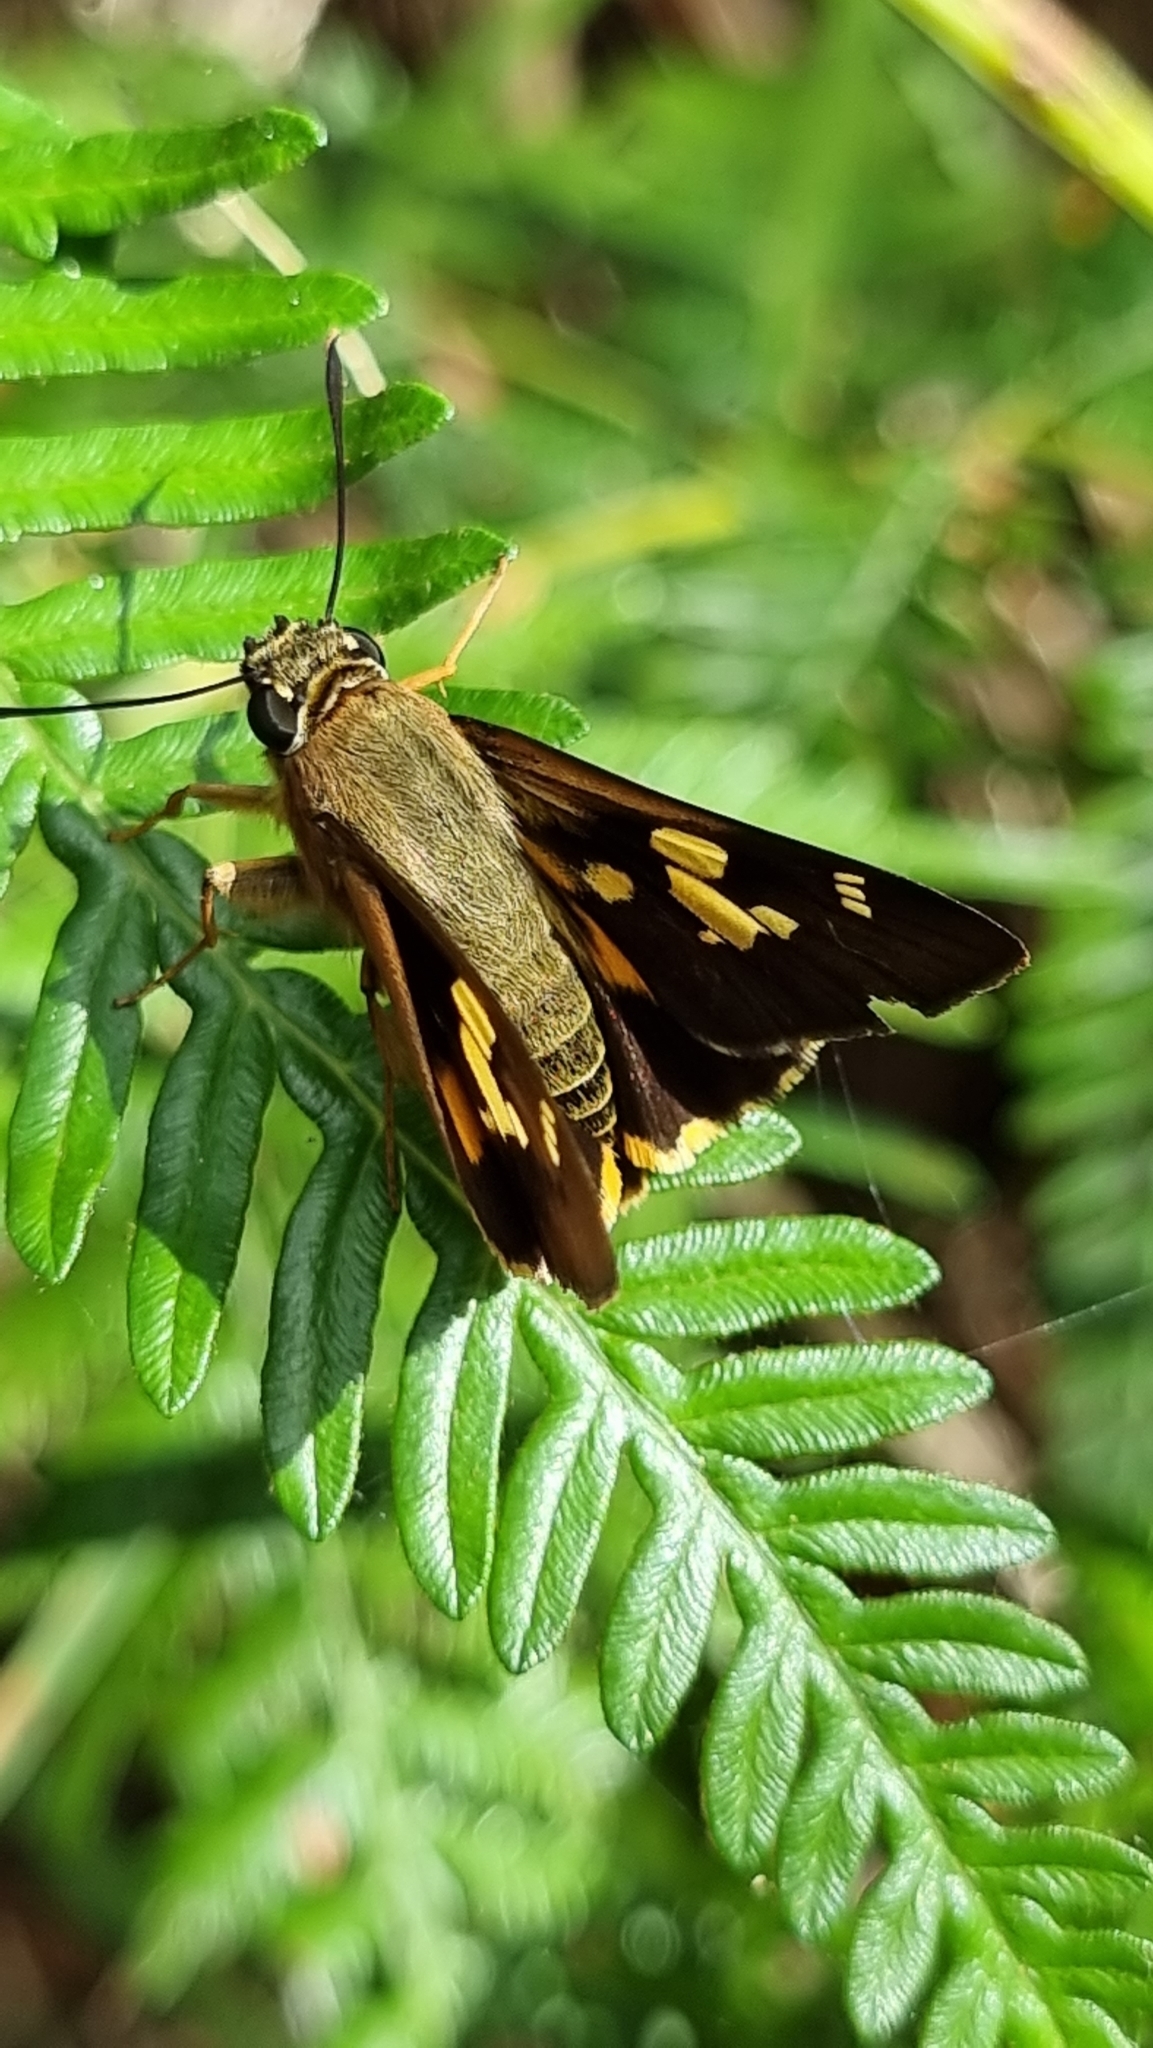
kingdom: Animalia
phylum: Arthropoda
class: Insecta
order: Lepidoptera
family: Hesperiidae
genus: Trapezites
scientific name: Trapezites symmomus
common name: Splendid ochre
